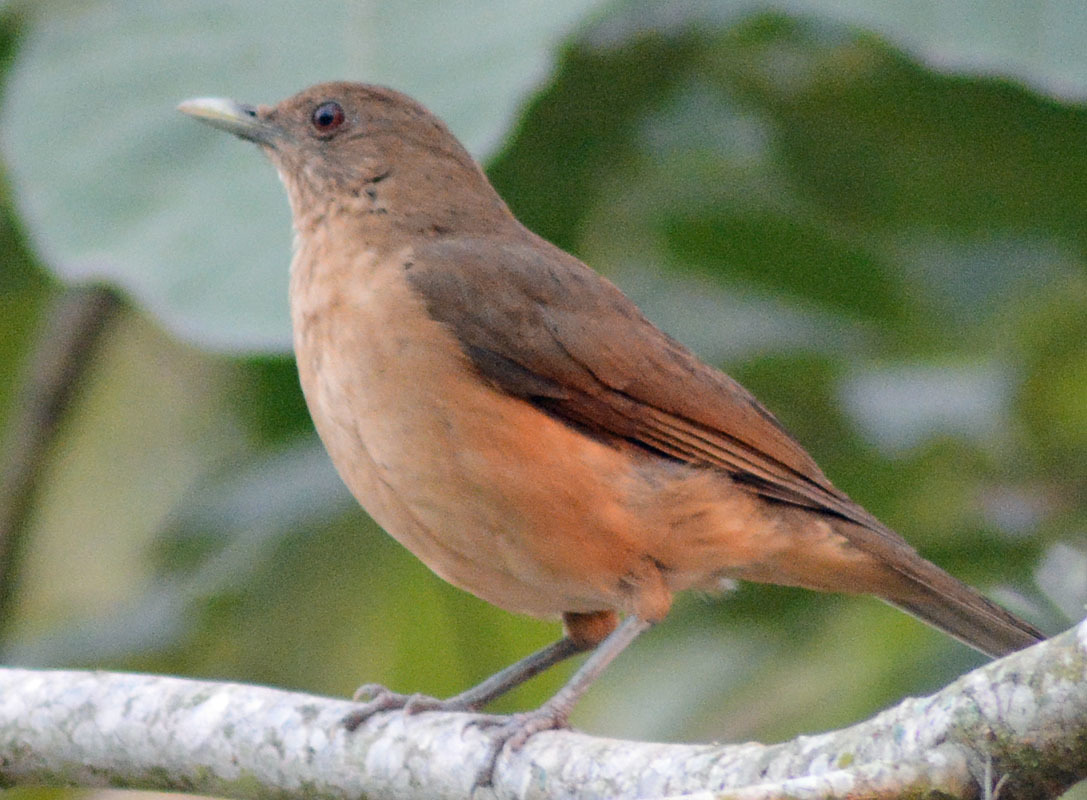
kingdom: Animalia
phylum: Chordata
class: Aves
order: Passeriformes
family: Turdidae
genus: Turdus
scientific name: Turdus grayi
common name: Clay-colored thrush
